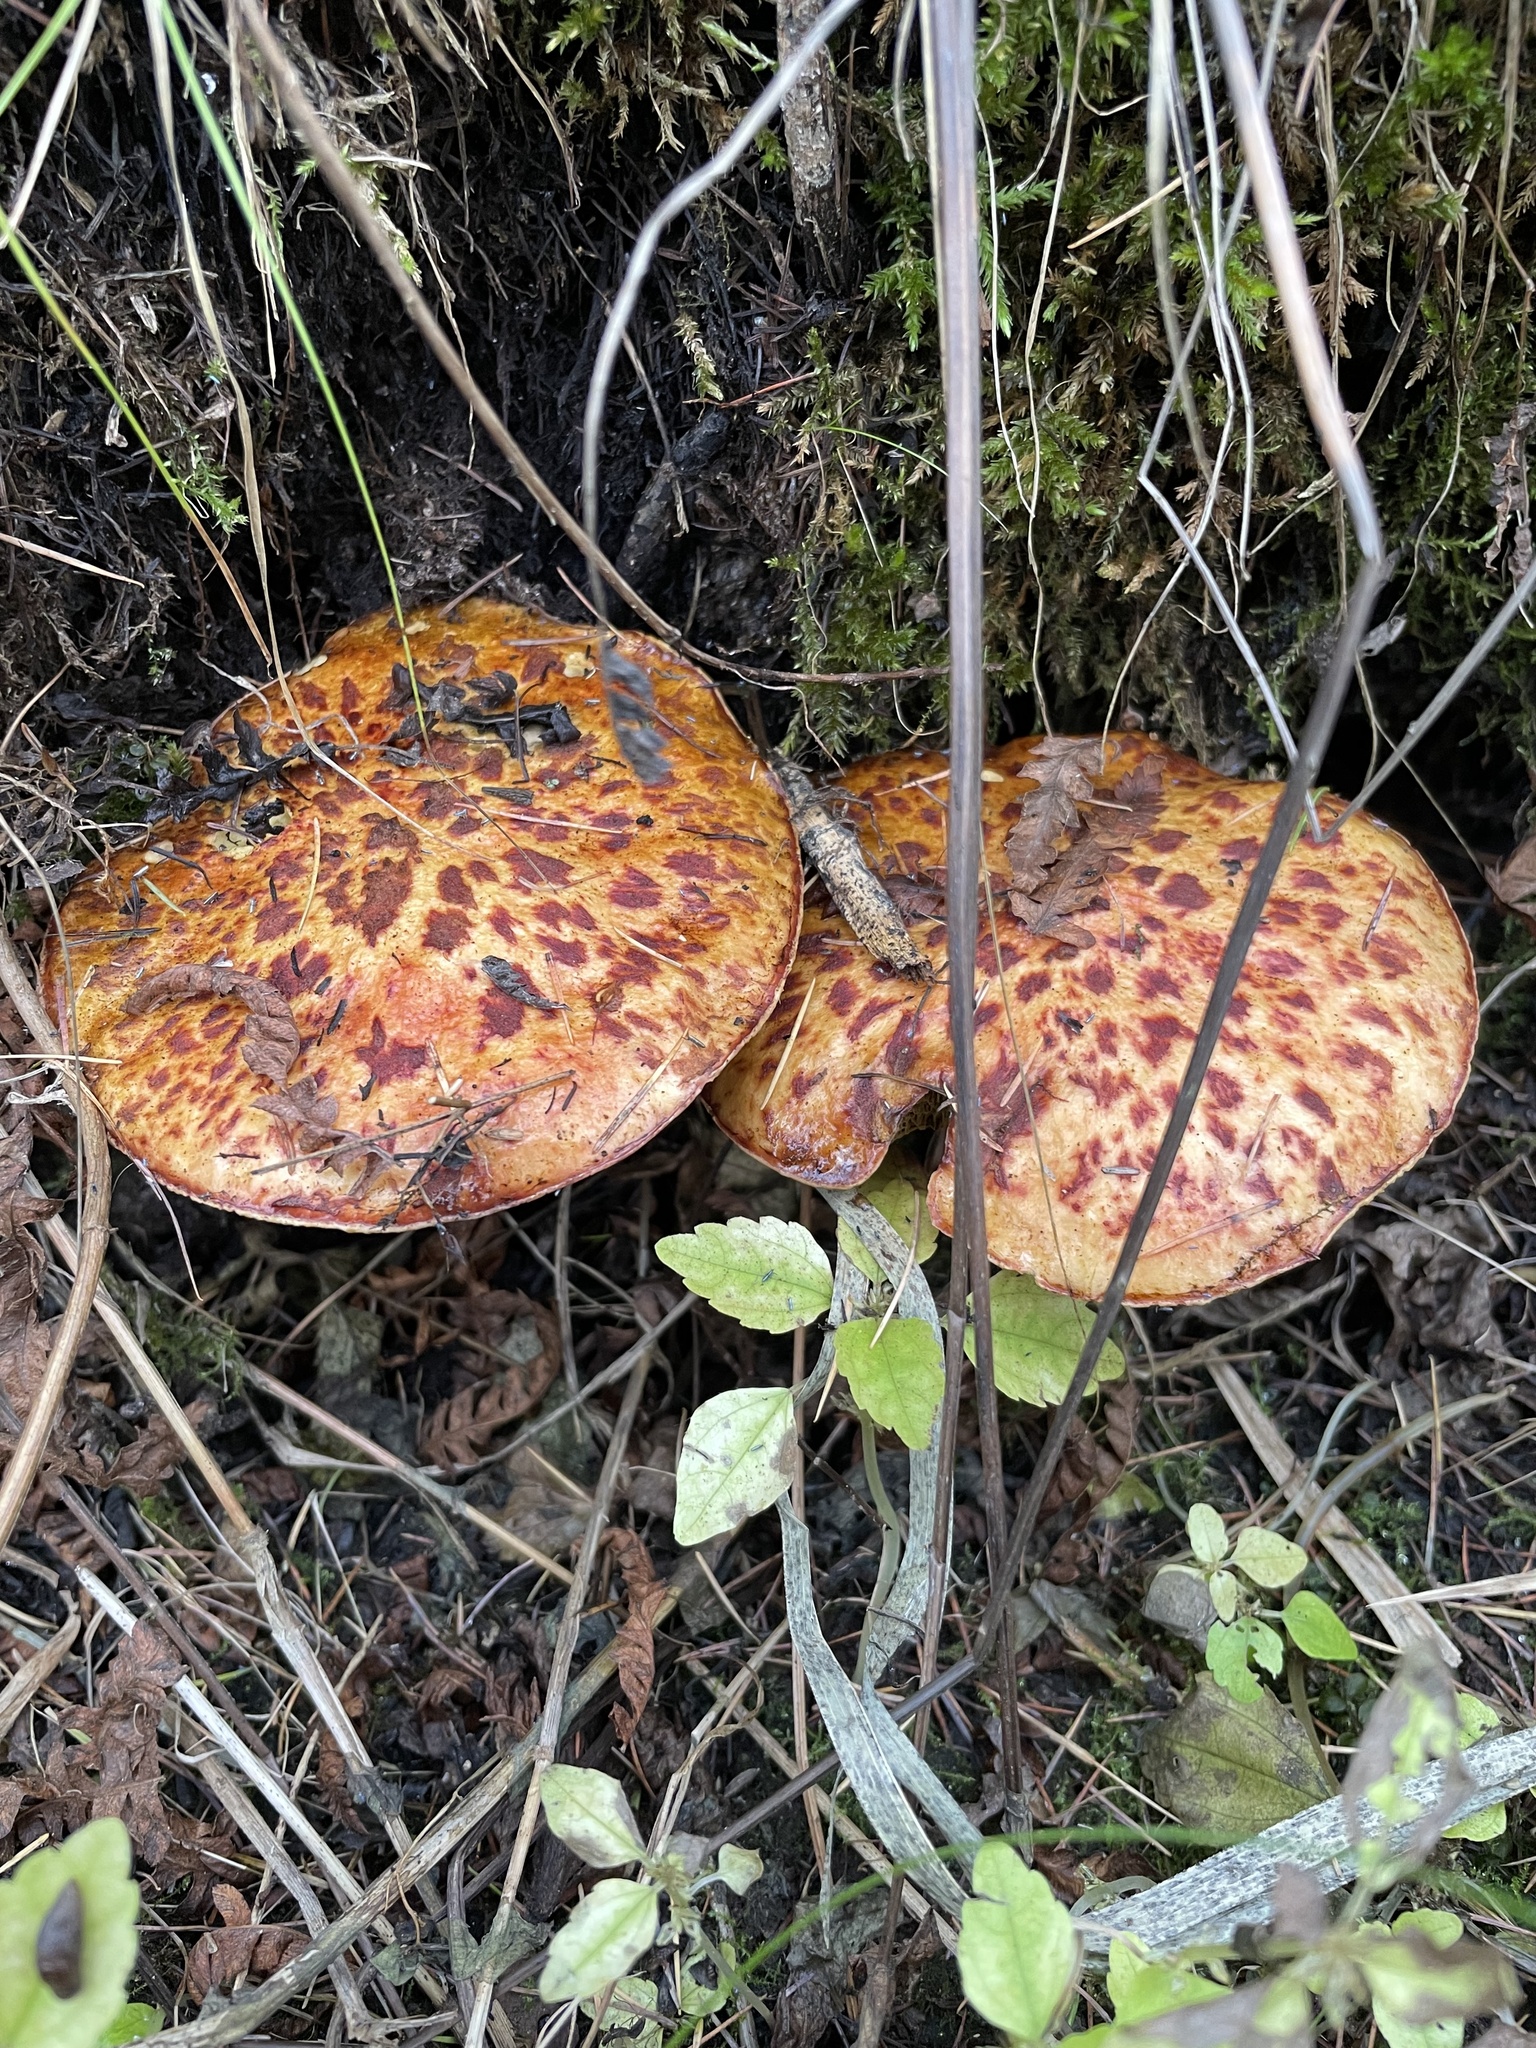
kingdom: Fungi
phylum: Basidiomycota
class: Agaricomycetes
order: Boletales
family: Suillaceae
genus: Boletinus
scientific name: Boletinus spectabilis
